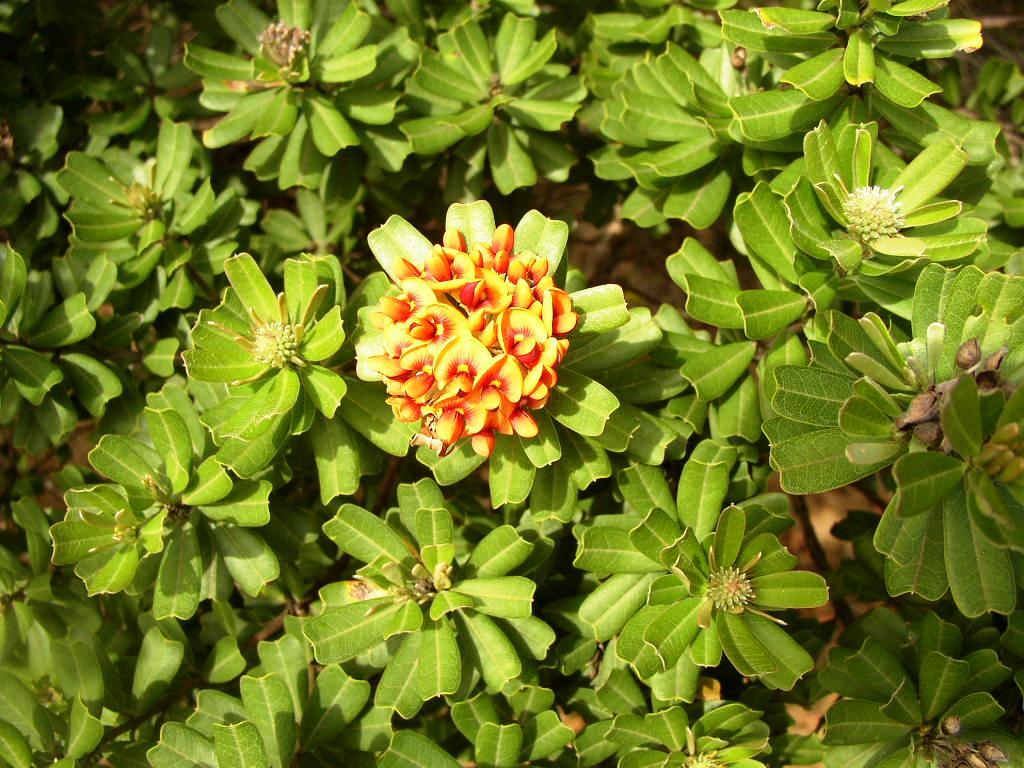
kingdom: Plantae
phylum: Tracheophyta
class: Magnoliopsida
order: Fabales
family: Fabaceae
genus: Gastrolobium
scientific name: Gastrolobium bilobum
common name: Heart-leaf poisonbush
